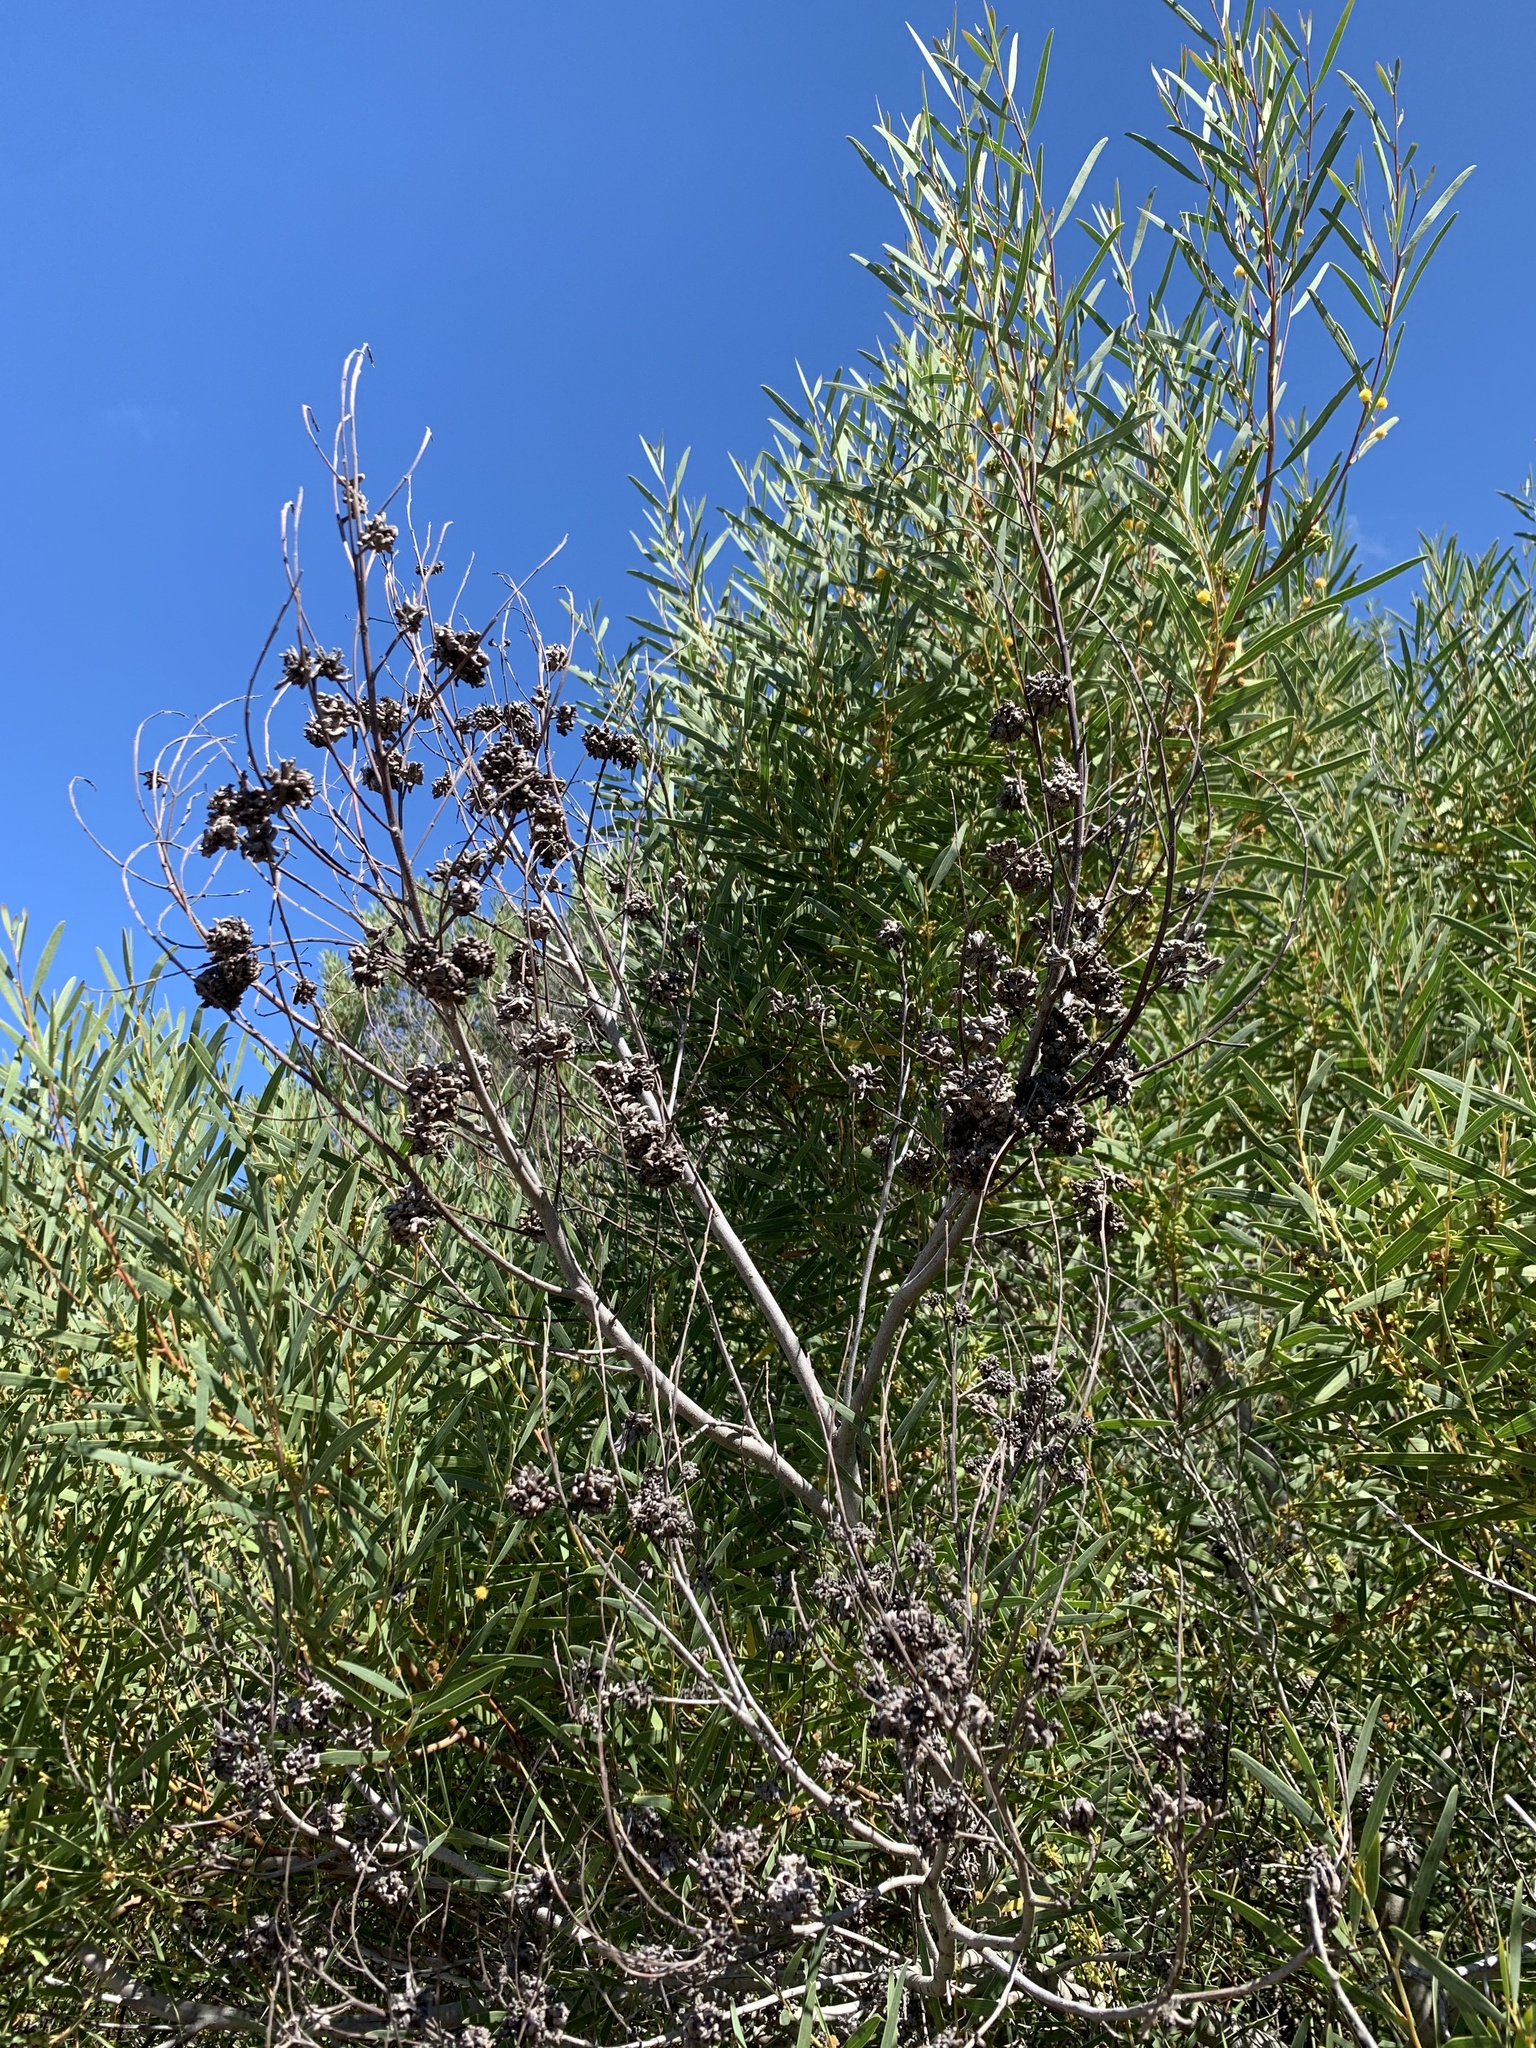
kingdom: Plantae
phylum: Tracheophyta
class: Magnoliopsida
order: Fabales
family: Fabaceae
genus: Acacia
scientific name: Acacia cyclops
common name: Coastal wattle
